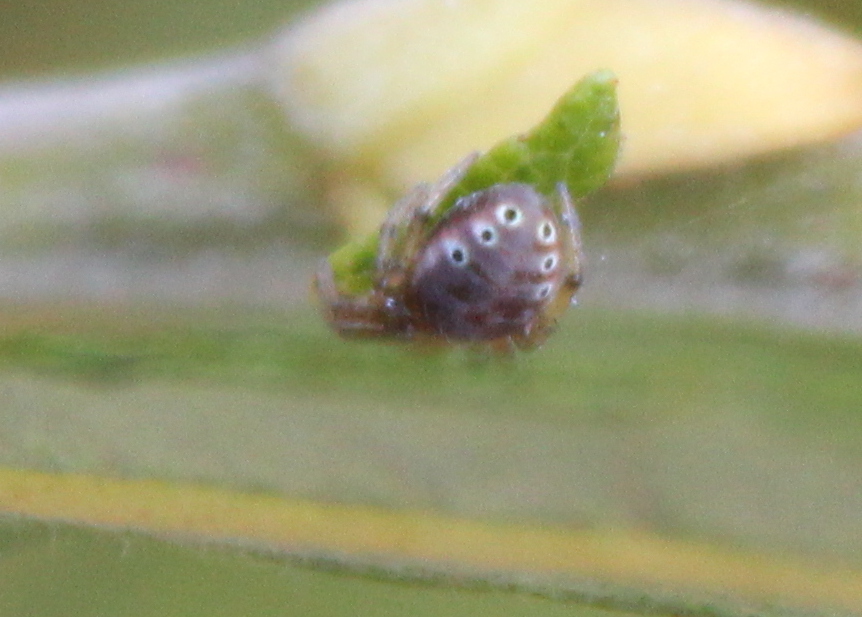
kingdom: Animalia
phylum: Arthropoda
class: Arachnida
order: Araneae
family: Araneidae
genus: Araniella
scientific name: Araniella displicata
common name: Sixspotted orb weaver
